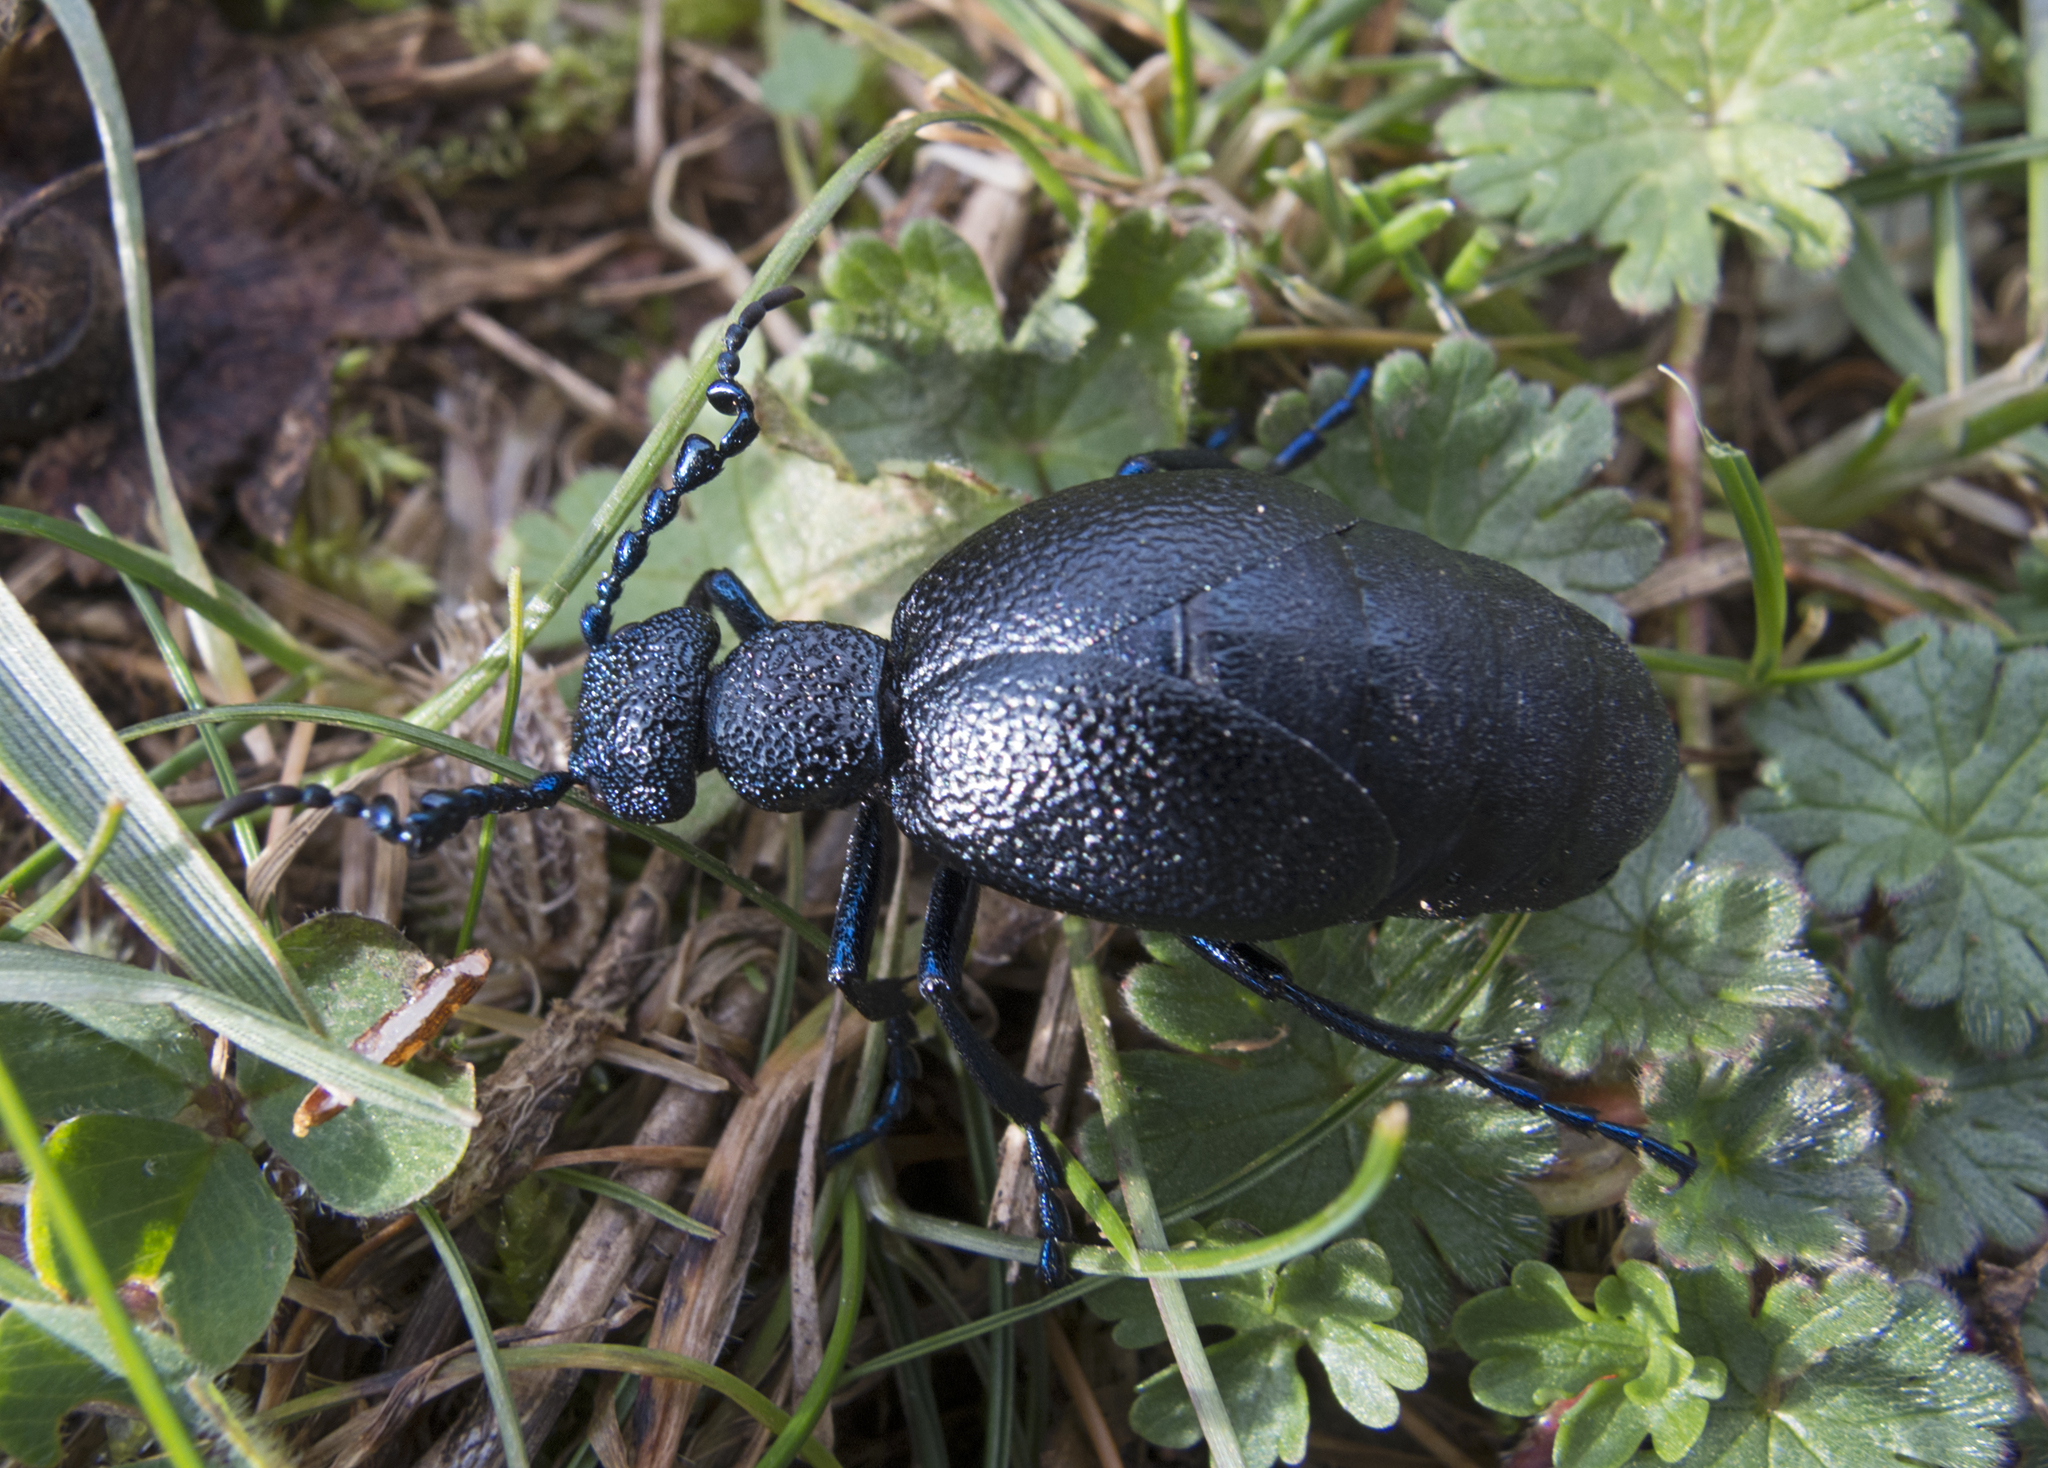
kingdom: Animalia
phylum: Arthropoda
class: Insecta
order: Coleoptera
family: Meloidae
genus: Meloe
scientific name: Meloe proscarabaeus
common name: Black oil-beetle
